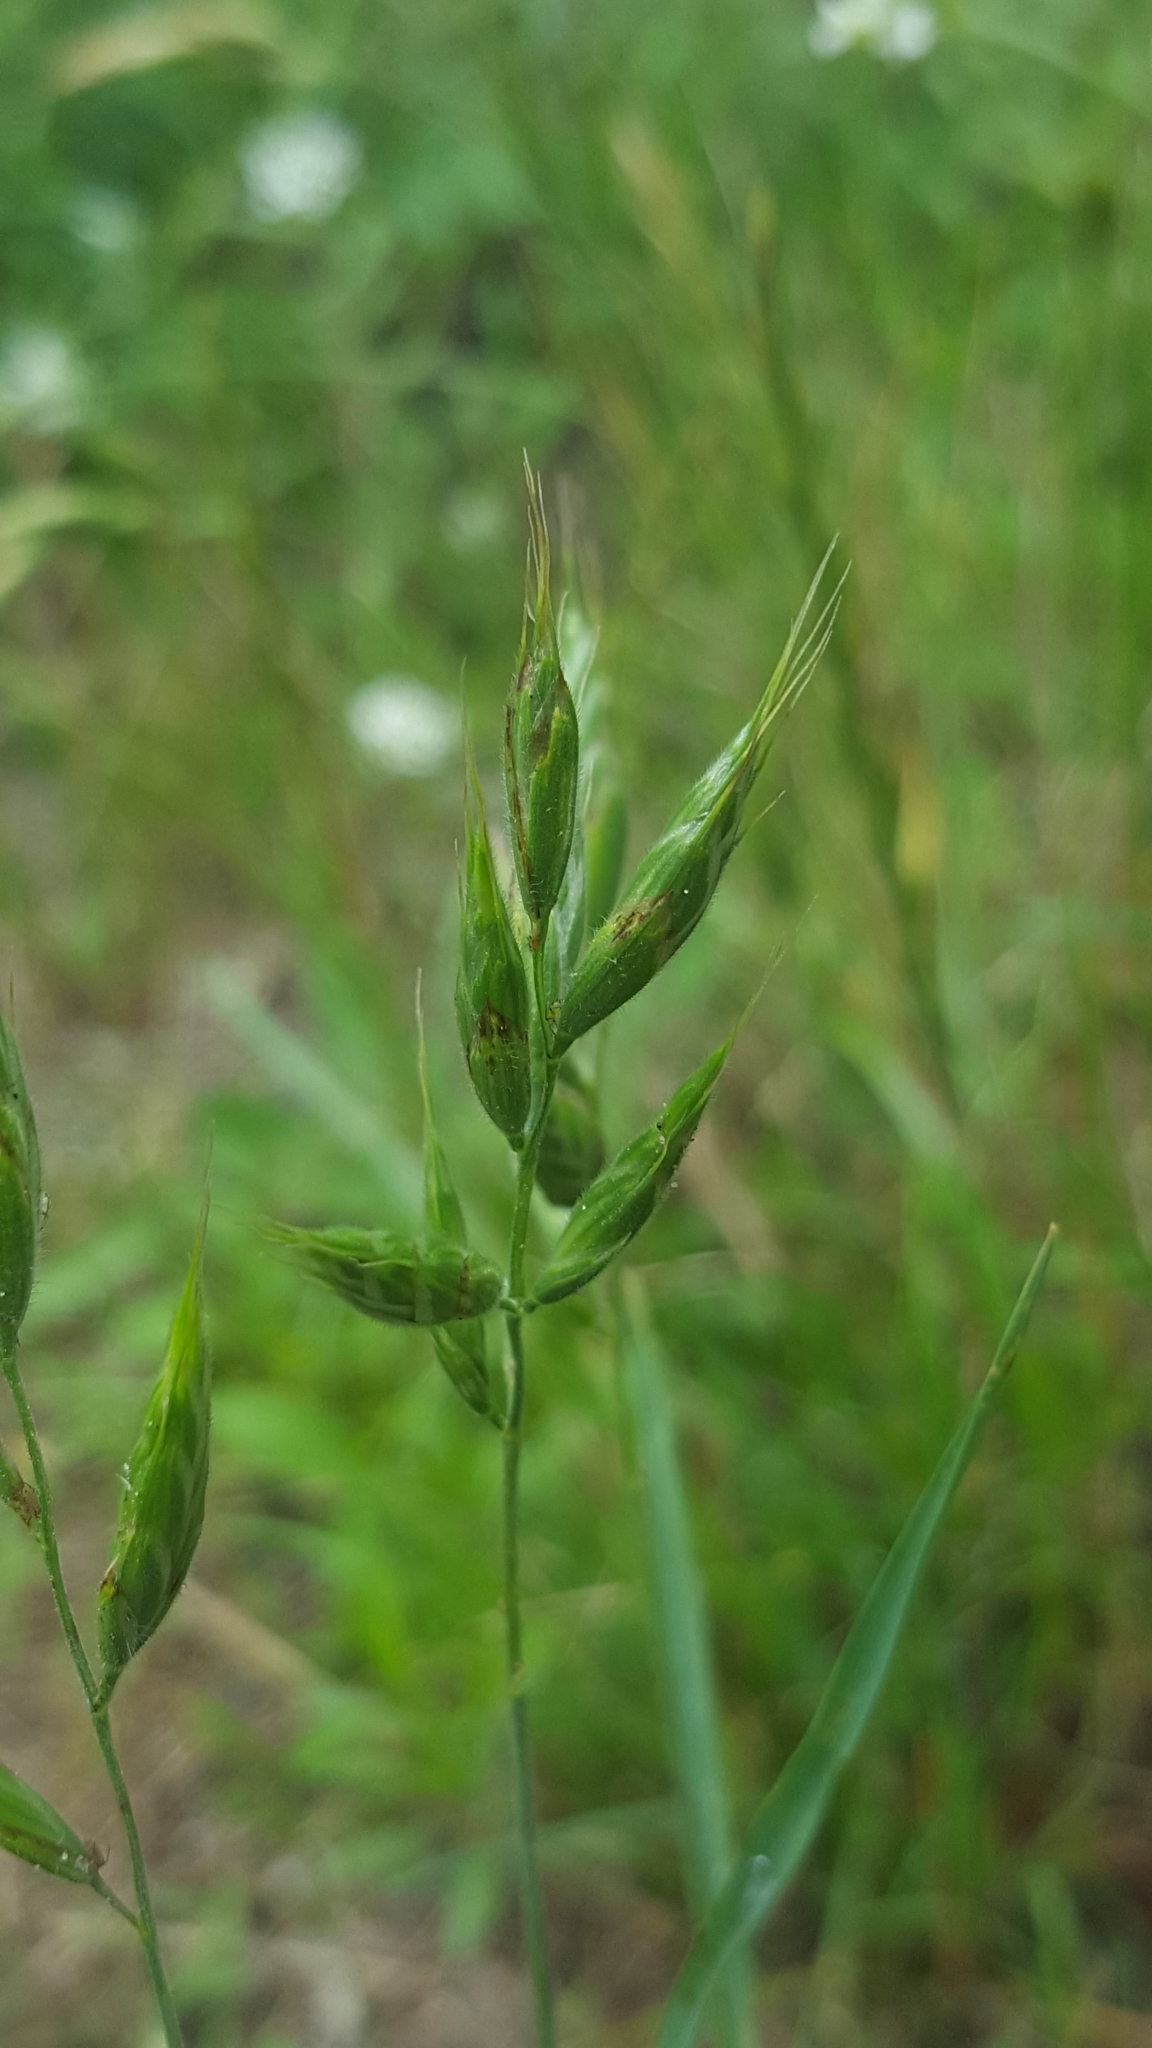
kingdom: Plantae
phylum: Tracheophyta
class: Liliopsida
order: Poales
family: Poaceae
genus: Bromus
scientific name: Bromus hordeaceus
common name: Soft brome
